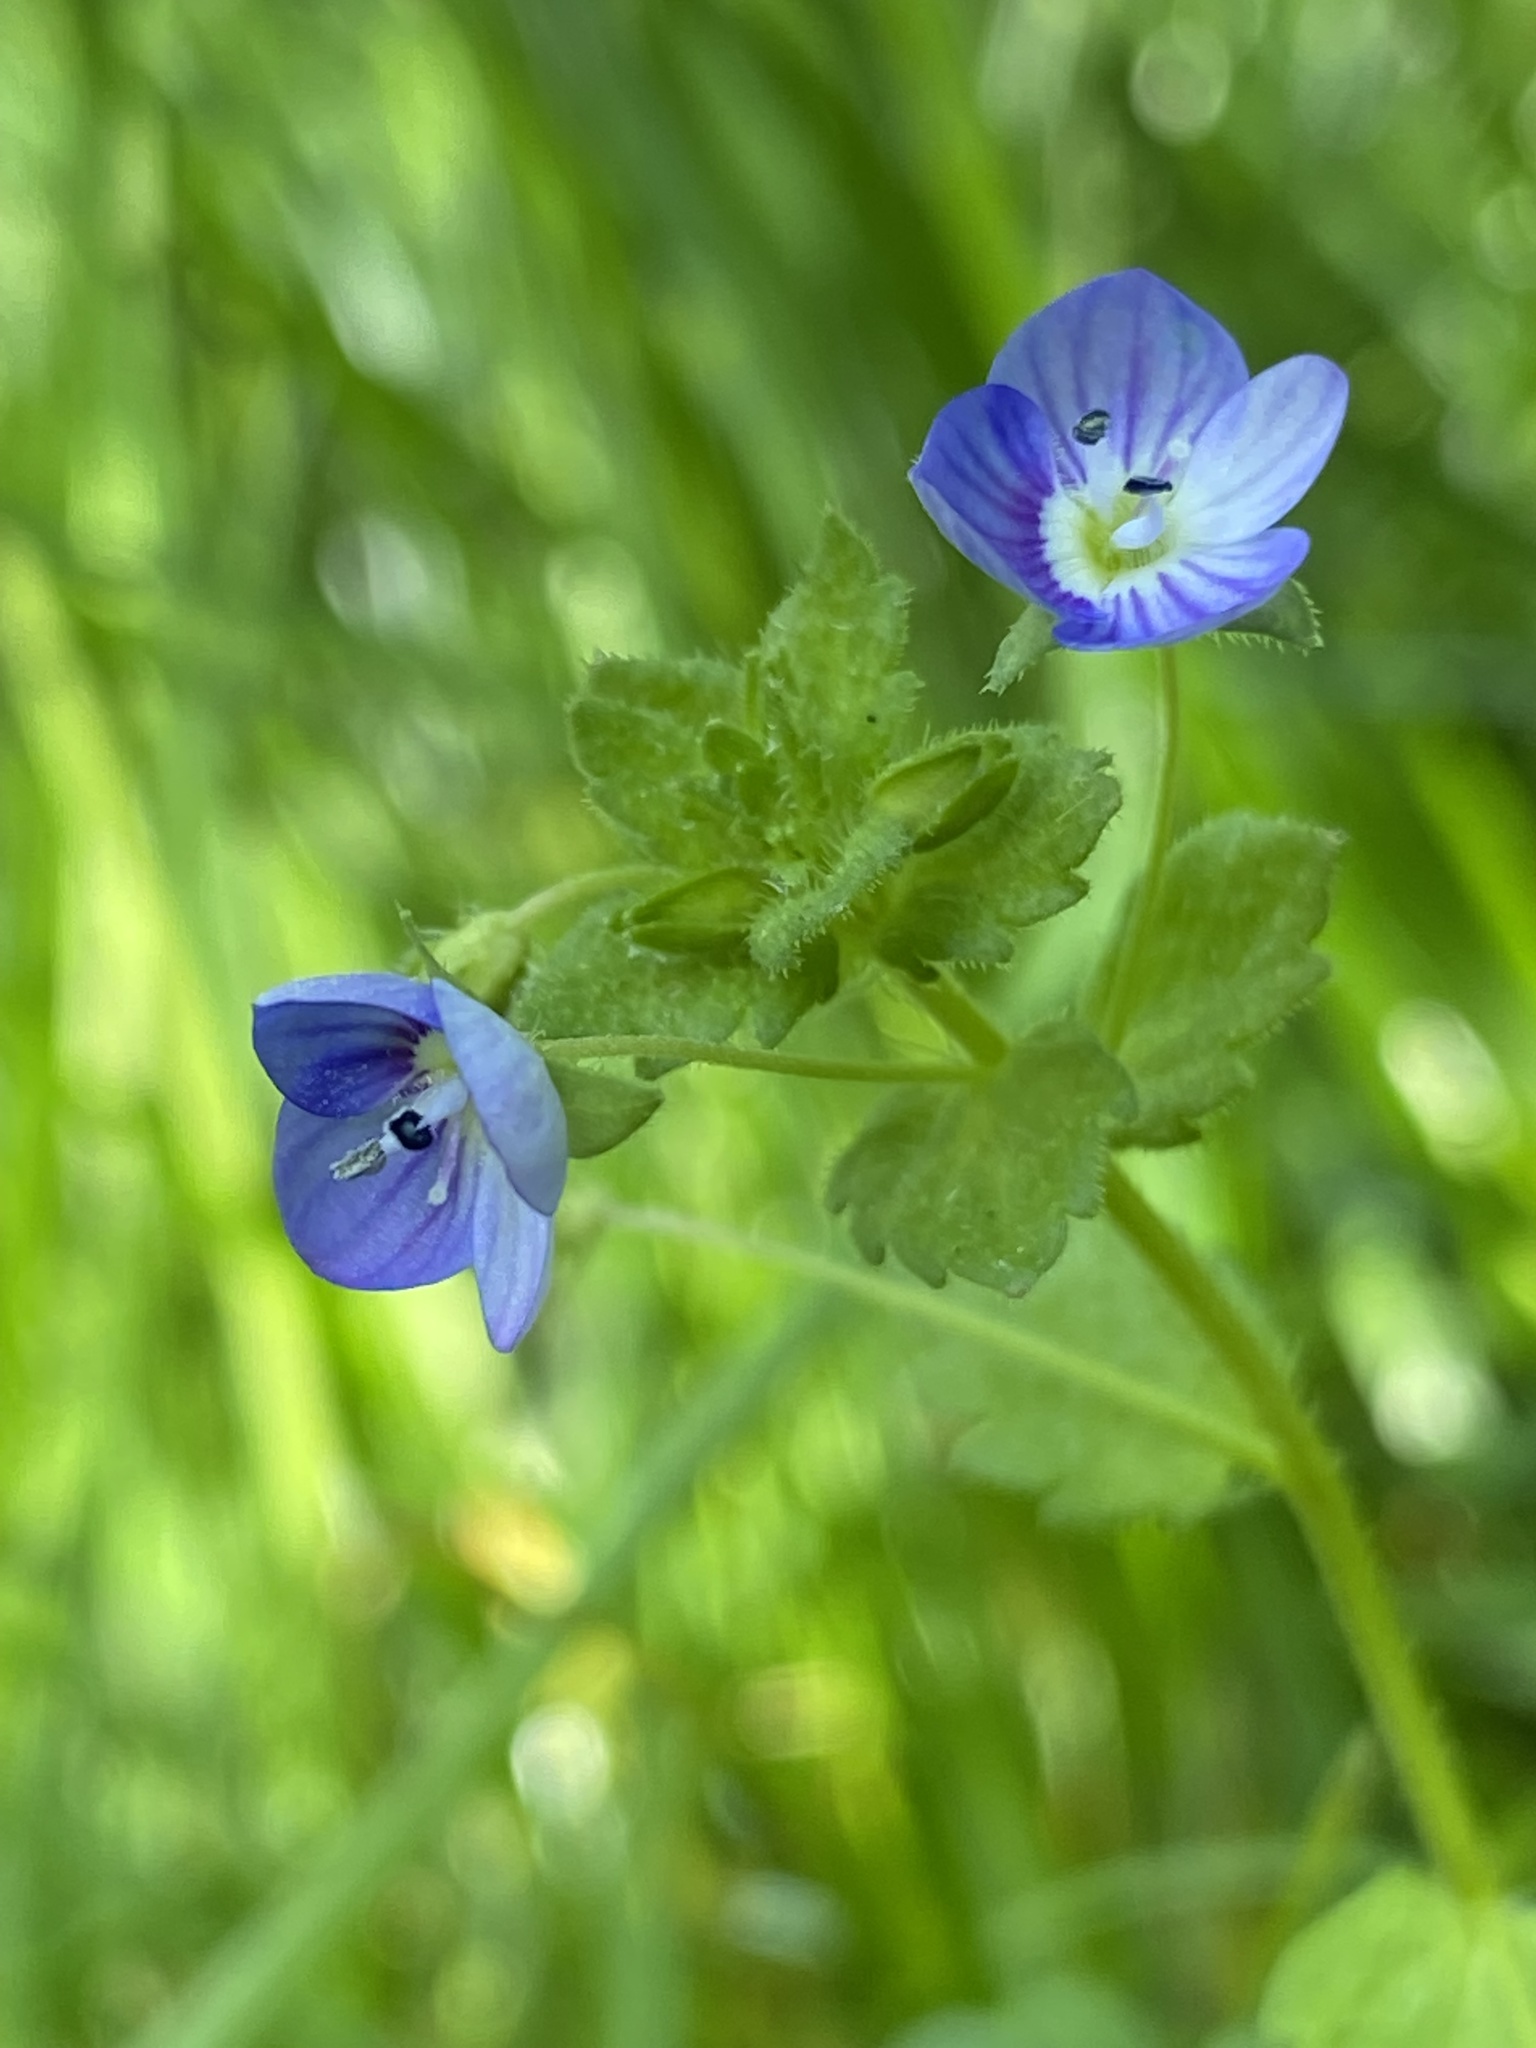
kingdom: Plantae
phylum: Tracheophyta
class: Magnoliopsida
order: Lamiales
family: Plantaginaceae
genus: Veronica
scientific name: Veronica persica
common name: Common field-speedwell
